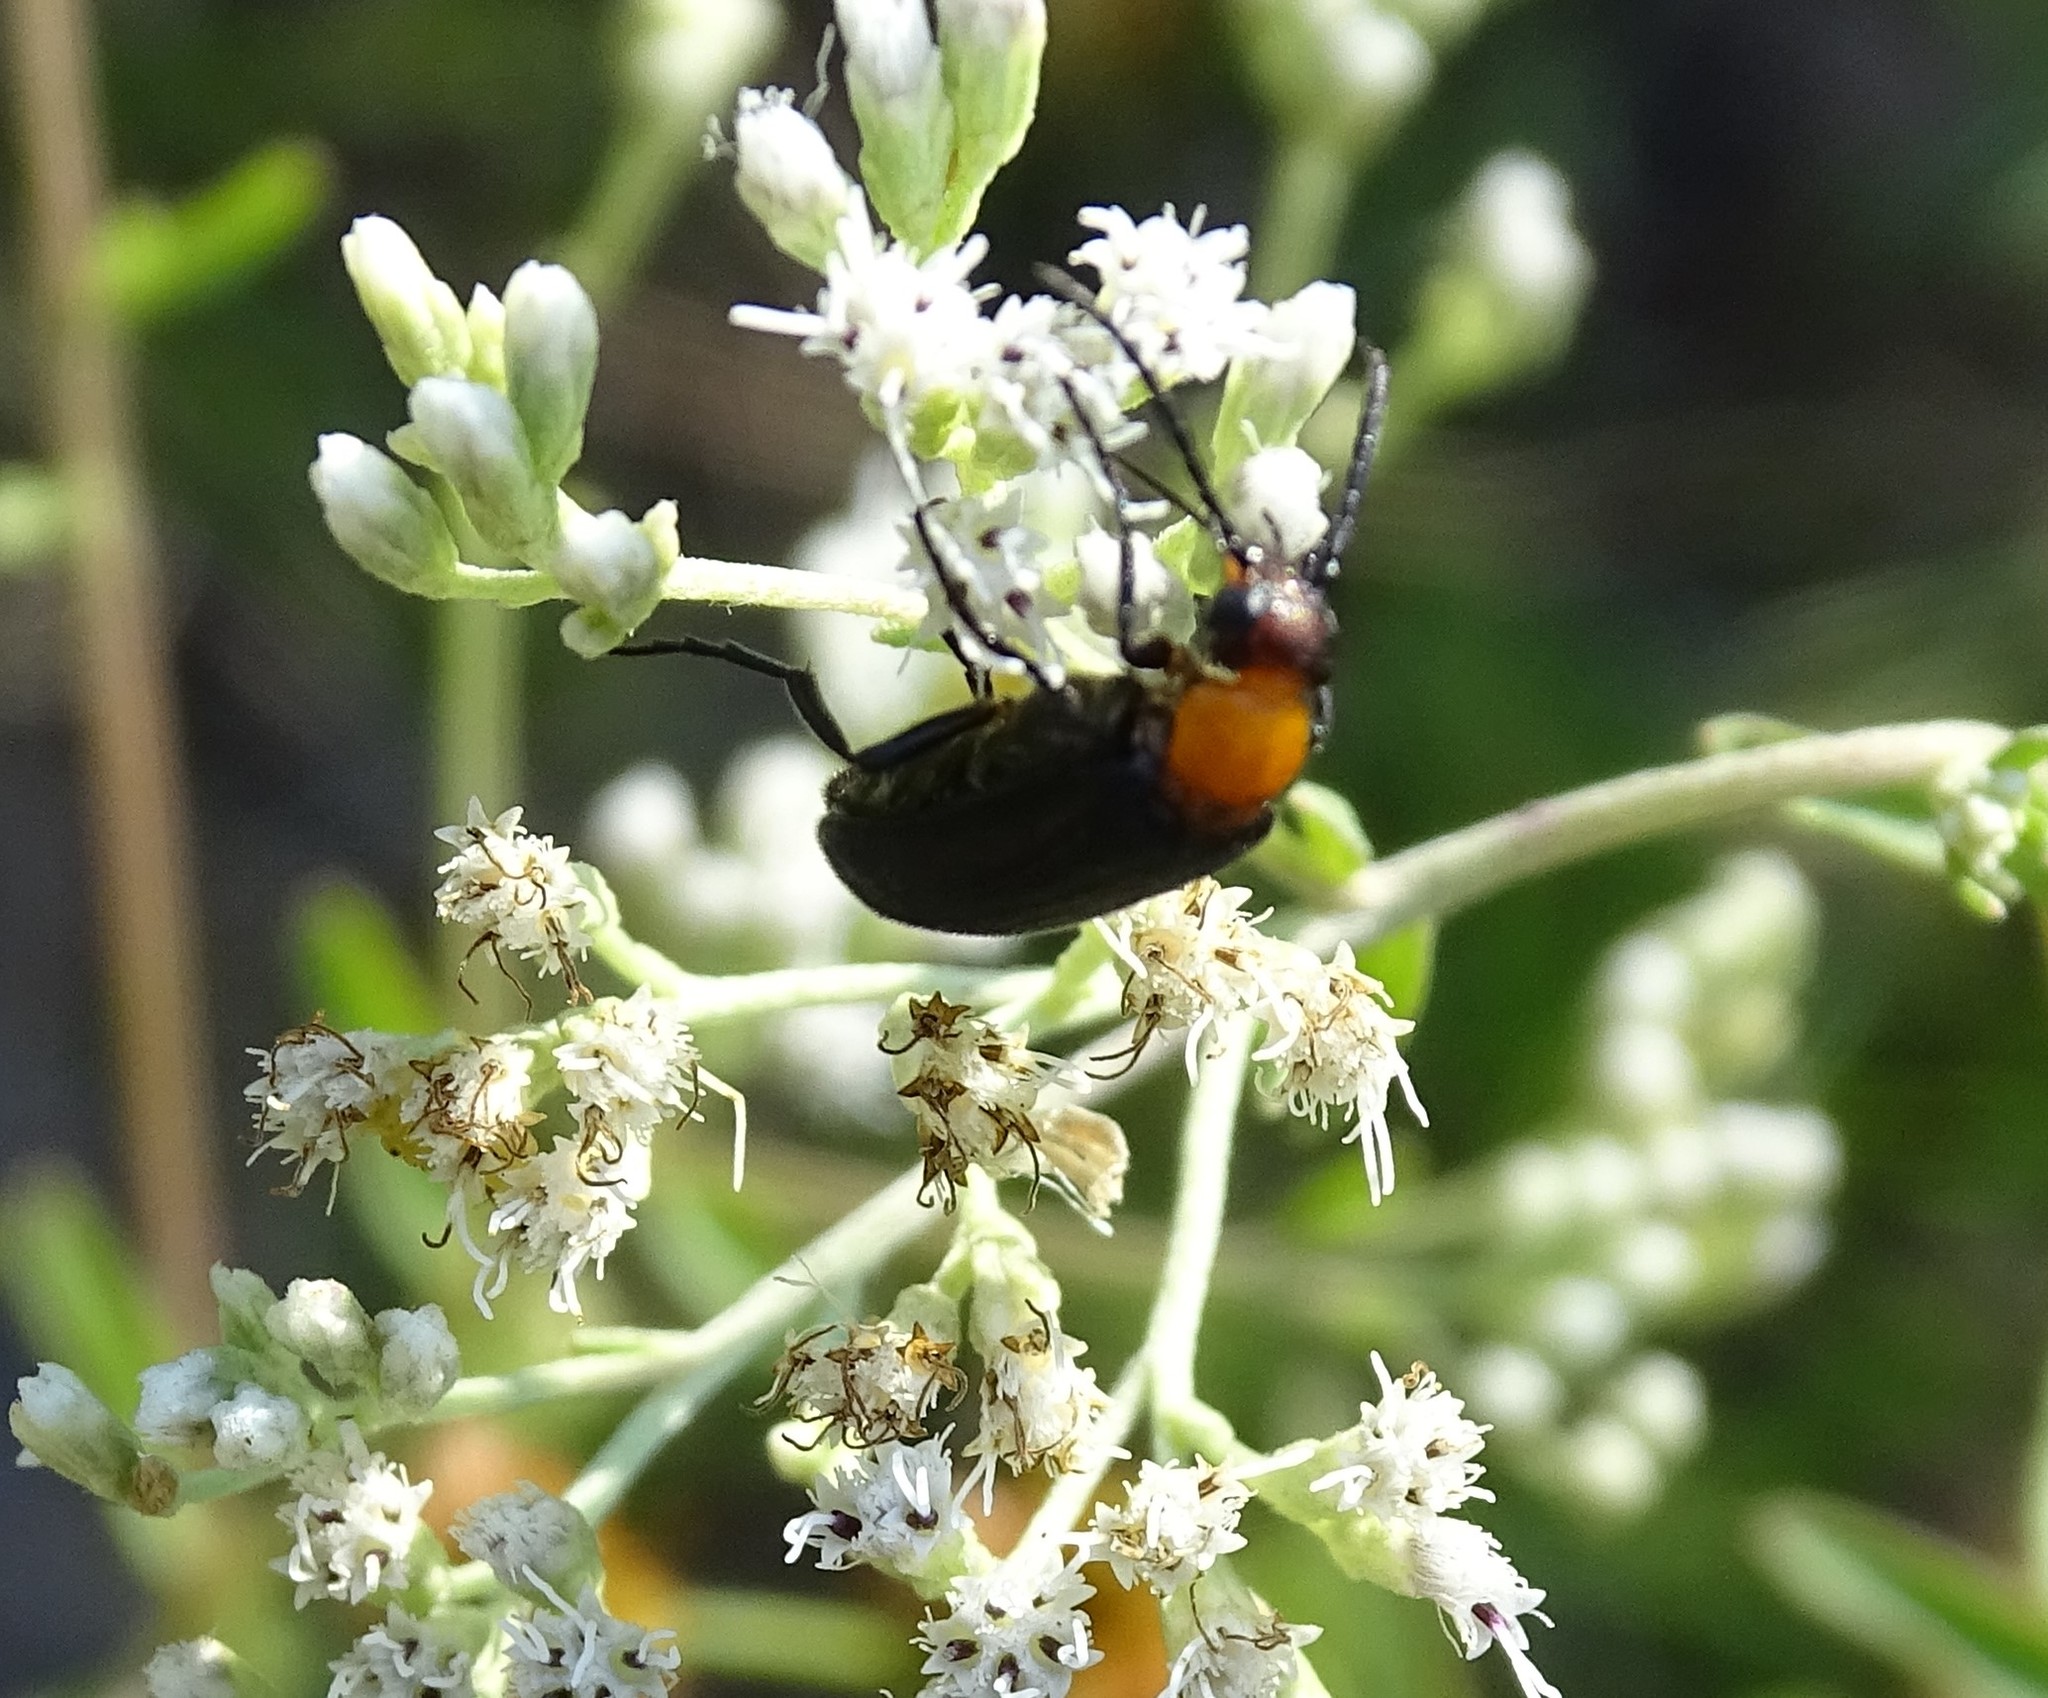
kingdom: Animalia
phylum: Arthropoda
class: Insecta
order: Coleoptera
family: Meloidae
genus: Nemognatha
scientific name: Nemognatha nemorensis
